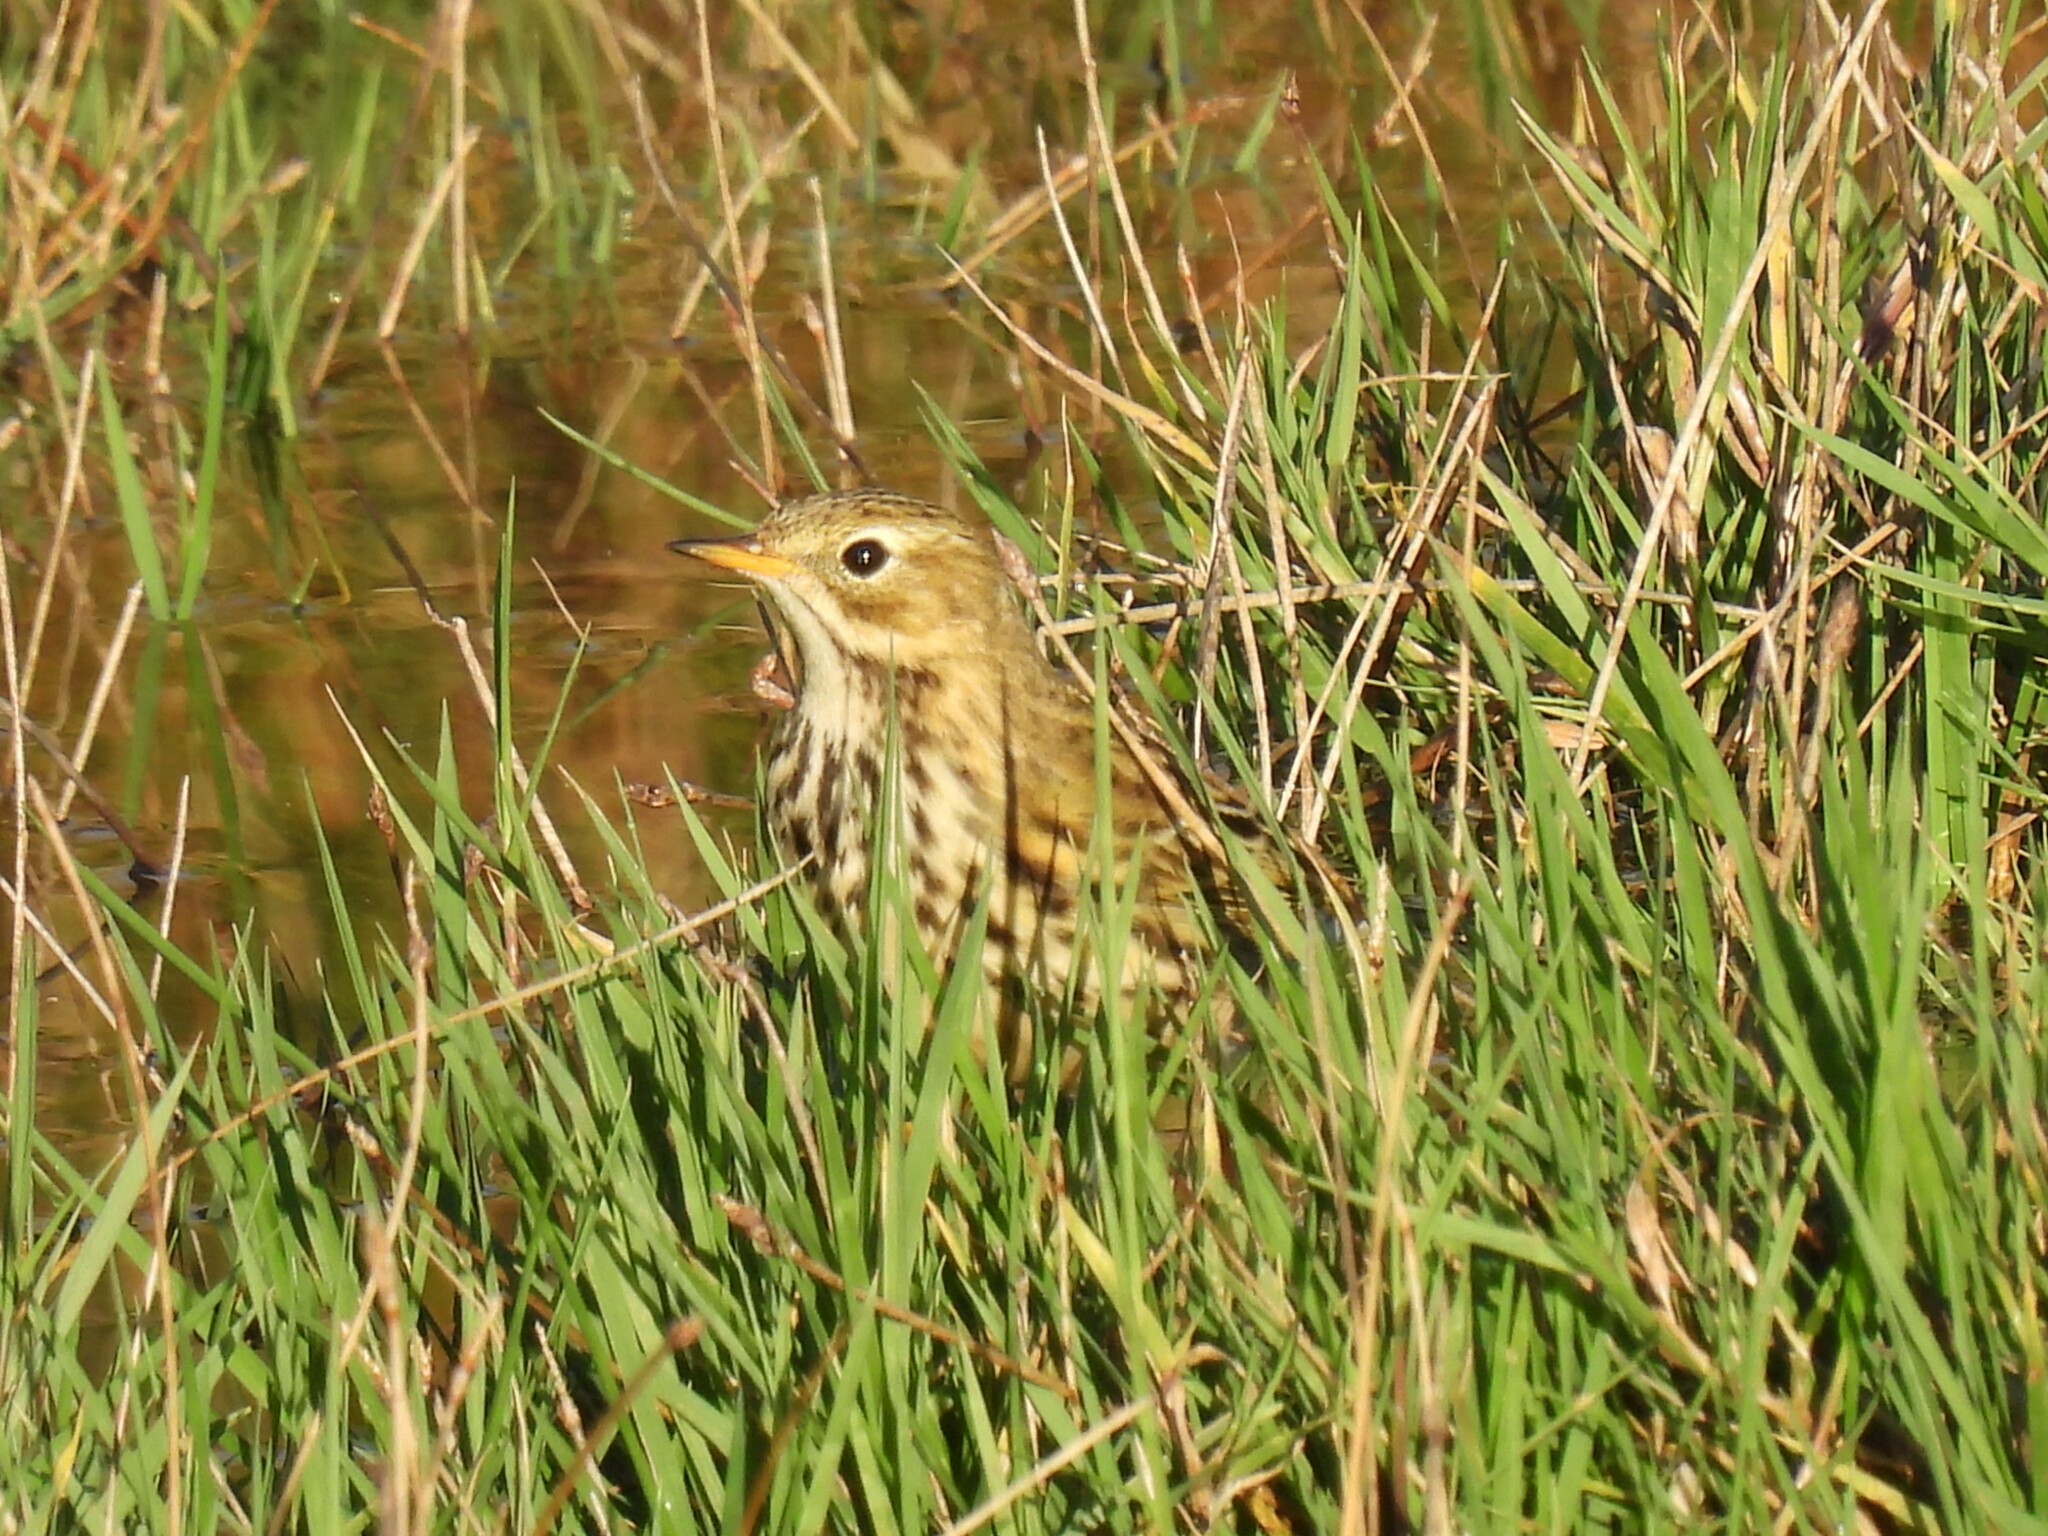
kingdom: Animalia
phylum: Chordata
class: Aves
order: Passeriformes
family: Motacillidae
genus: Anthus
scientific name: Anthus pratensis
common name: Meadow pipit
